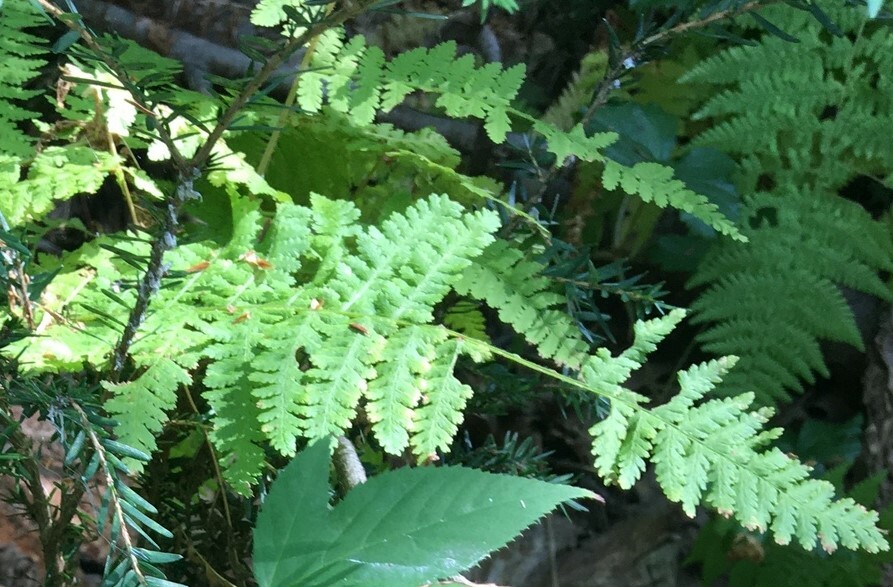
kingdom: Plantae
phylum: Tracheophyta
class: Polypodiopsida
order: Polypodiales
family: Dryopteridaceae
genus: Dryopteris
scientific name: Dryopteris intermedia
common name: Evergreen wood fern
